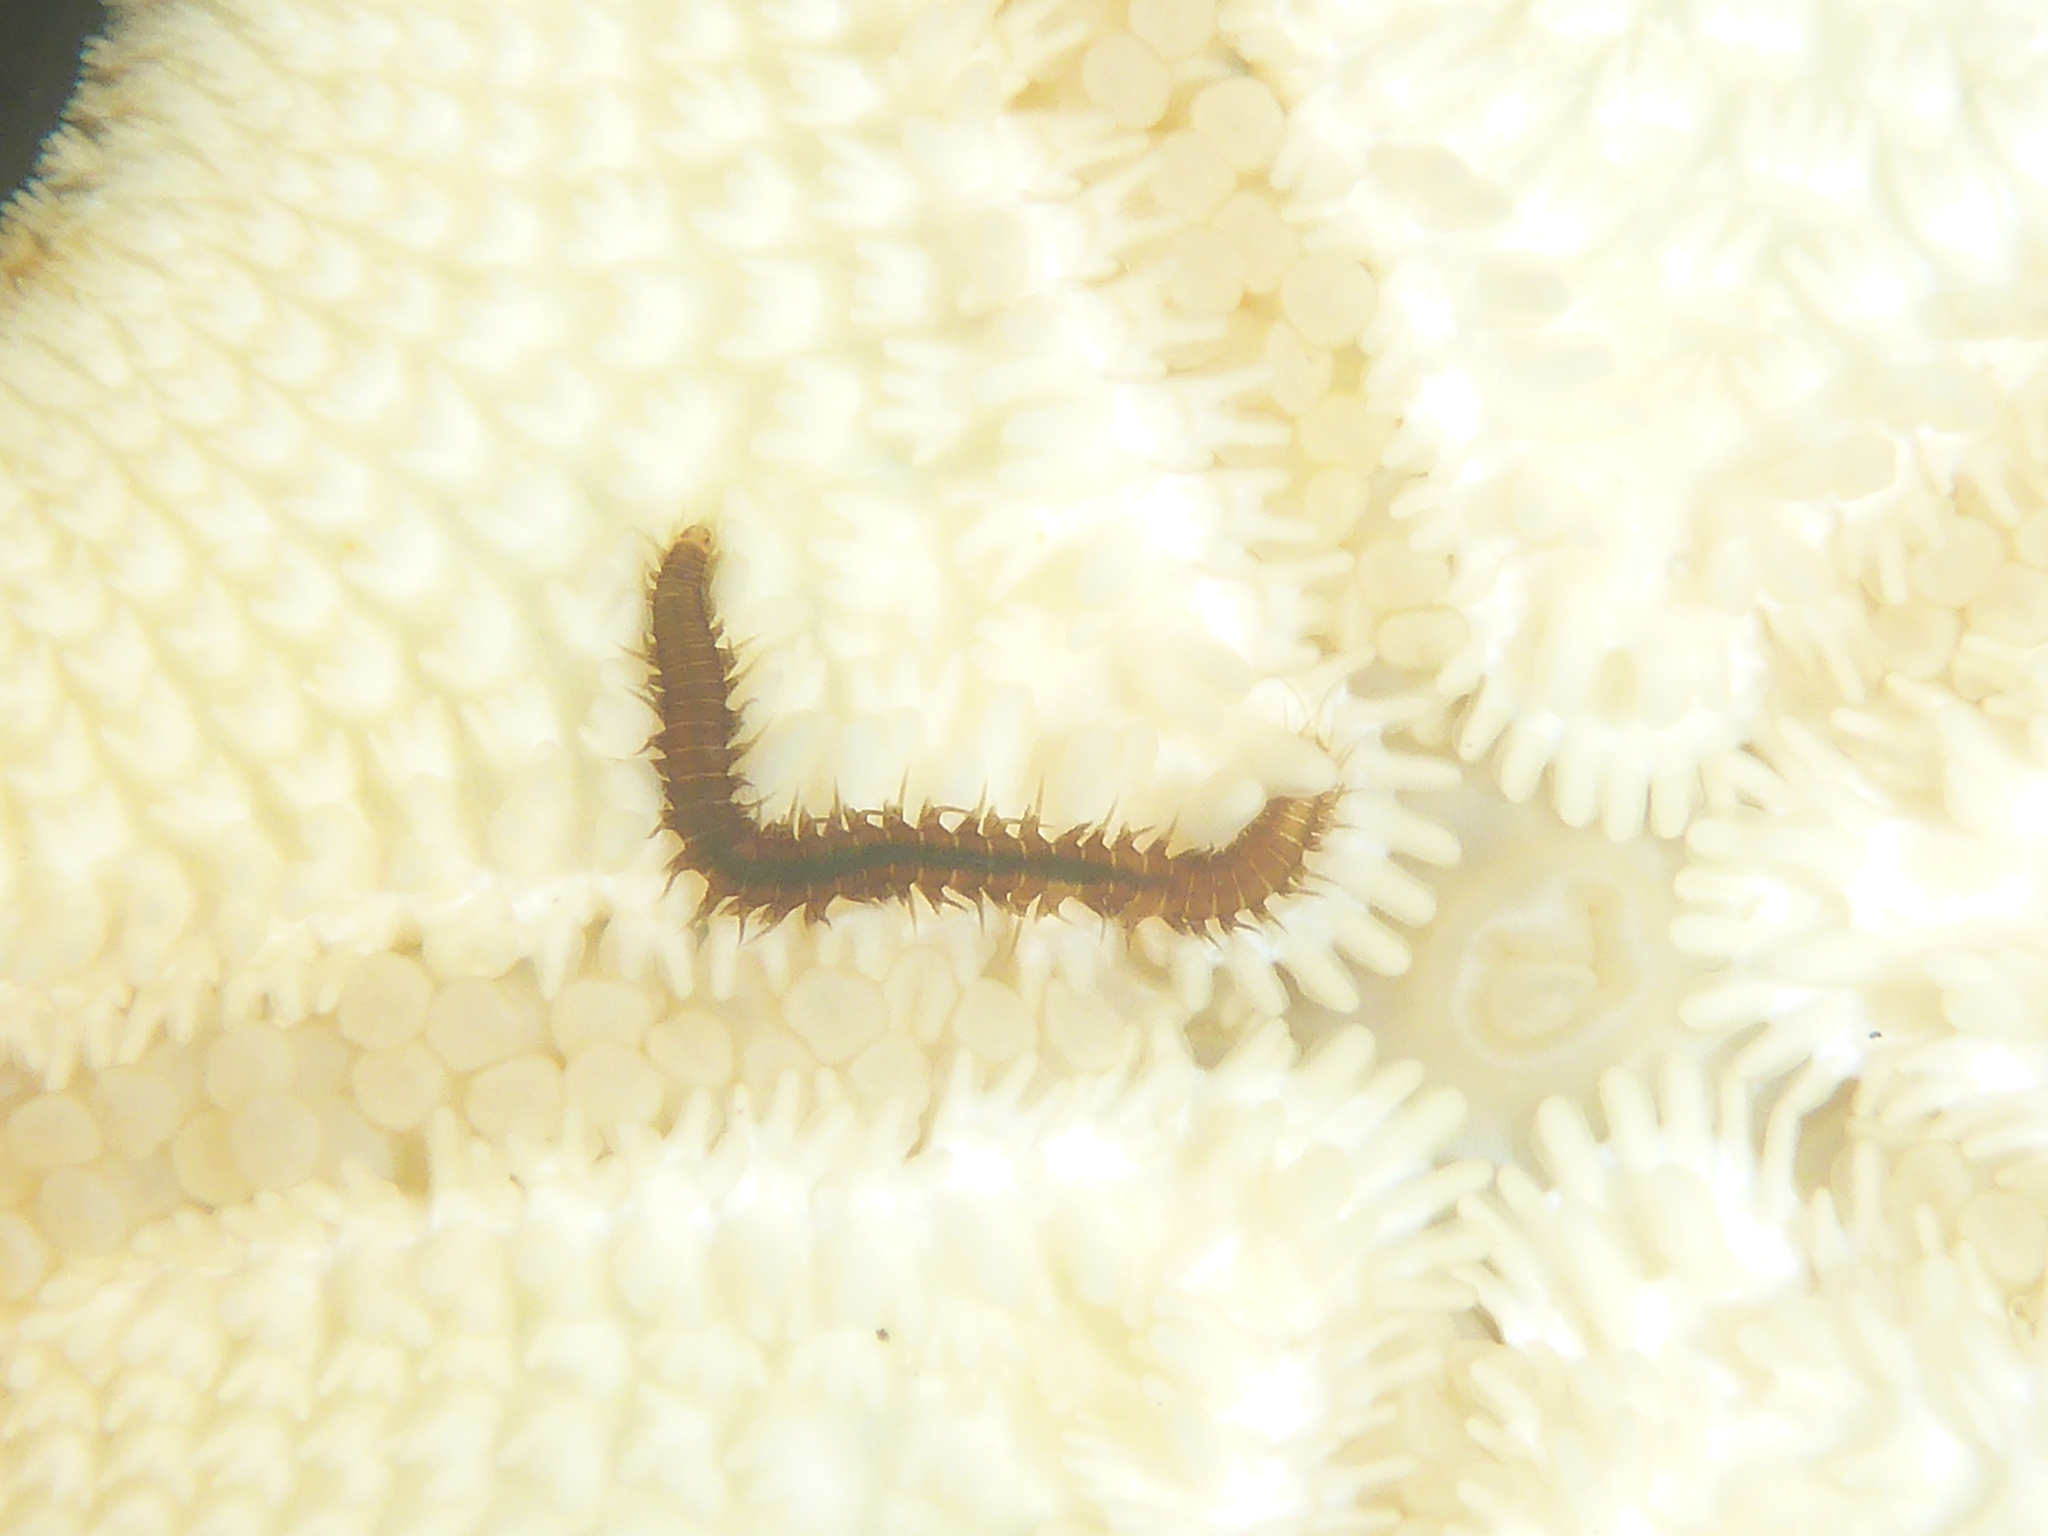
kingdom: Animalia
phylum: Annelida
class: Polychaeta
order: Phyllodocida
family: Hesionidae
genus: Oxydromus
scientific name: Oxydromus pugettensis
